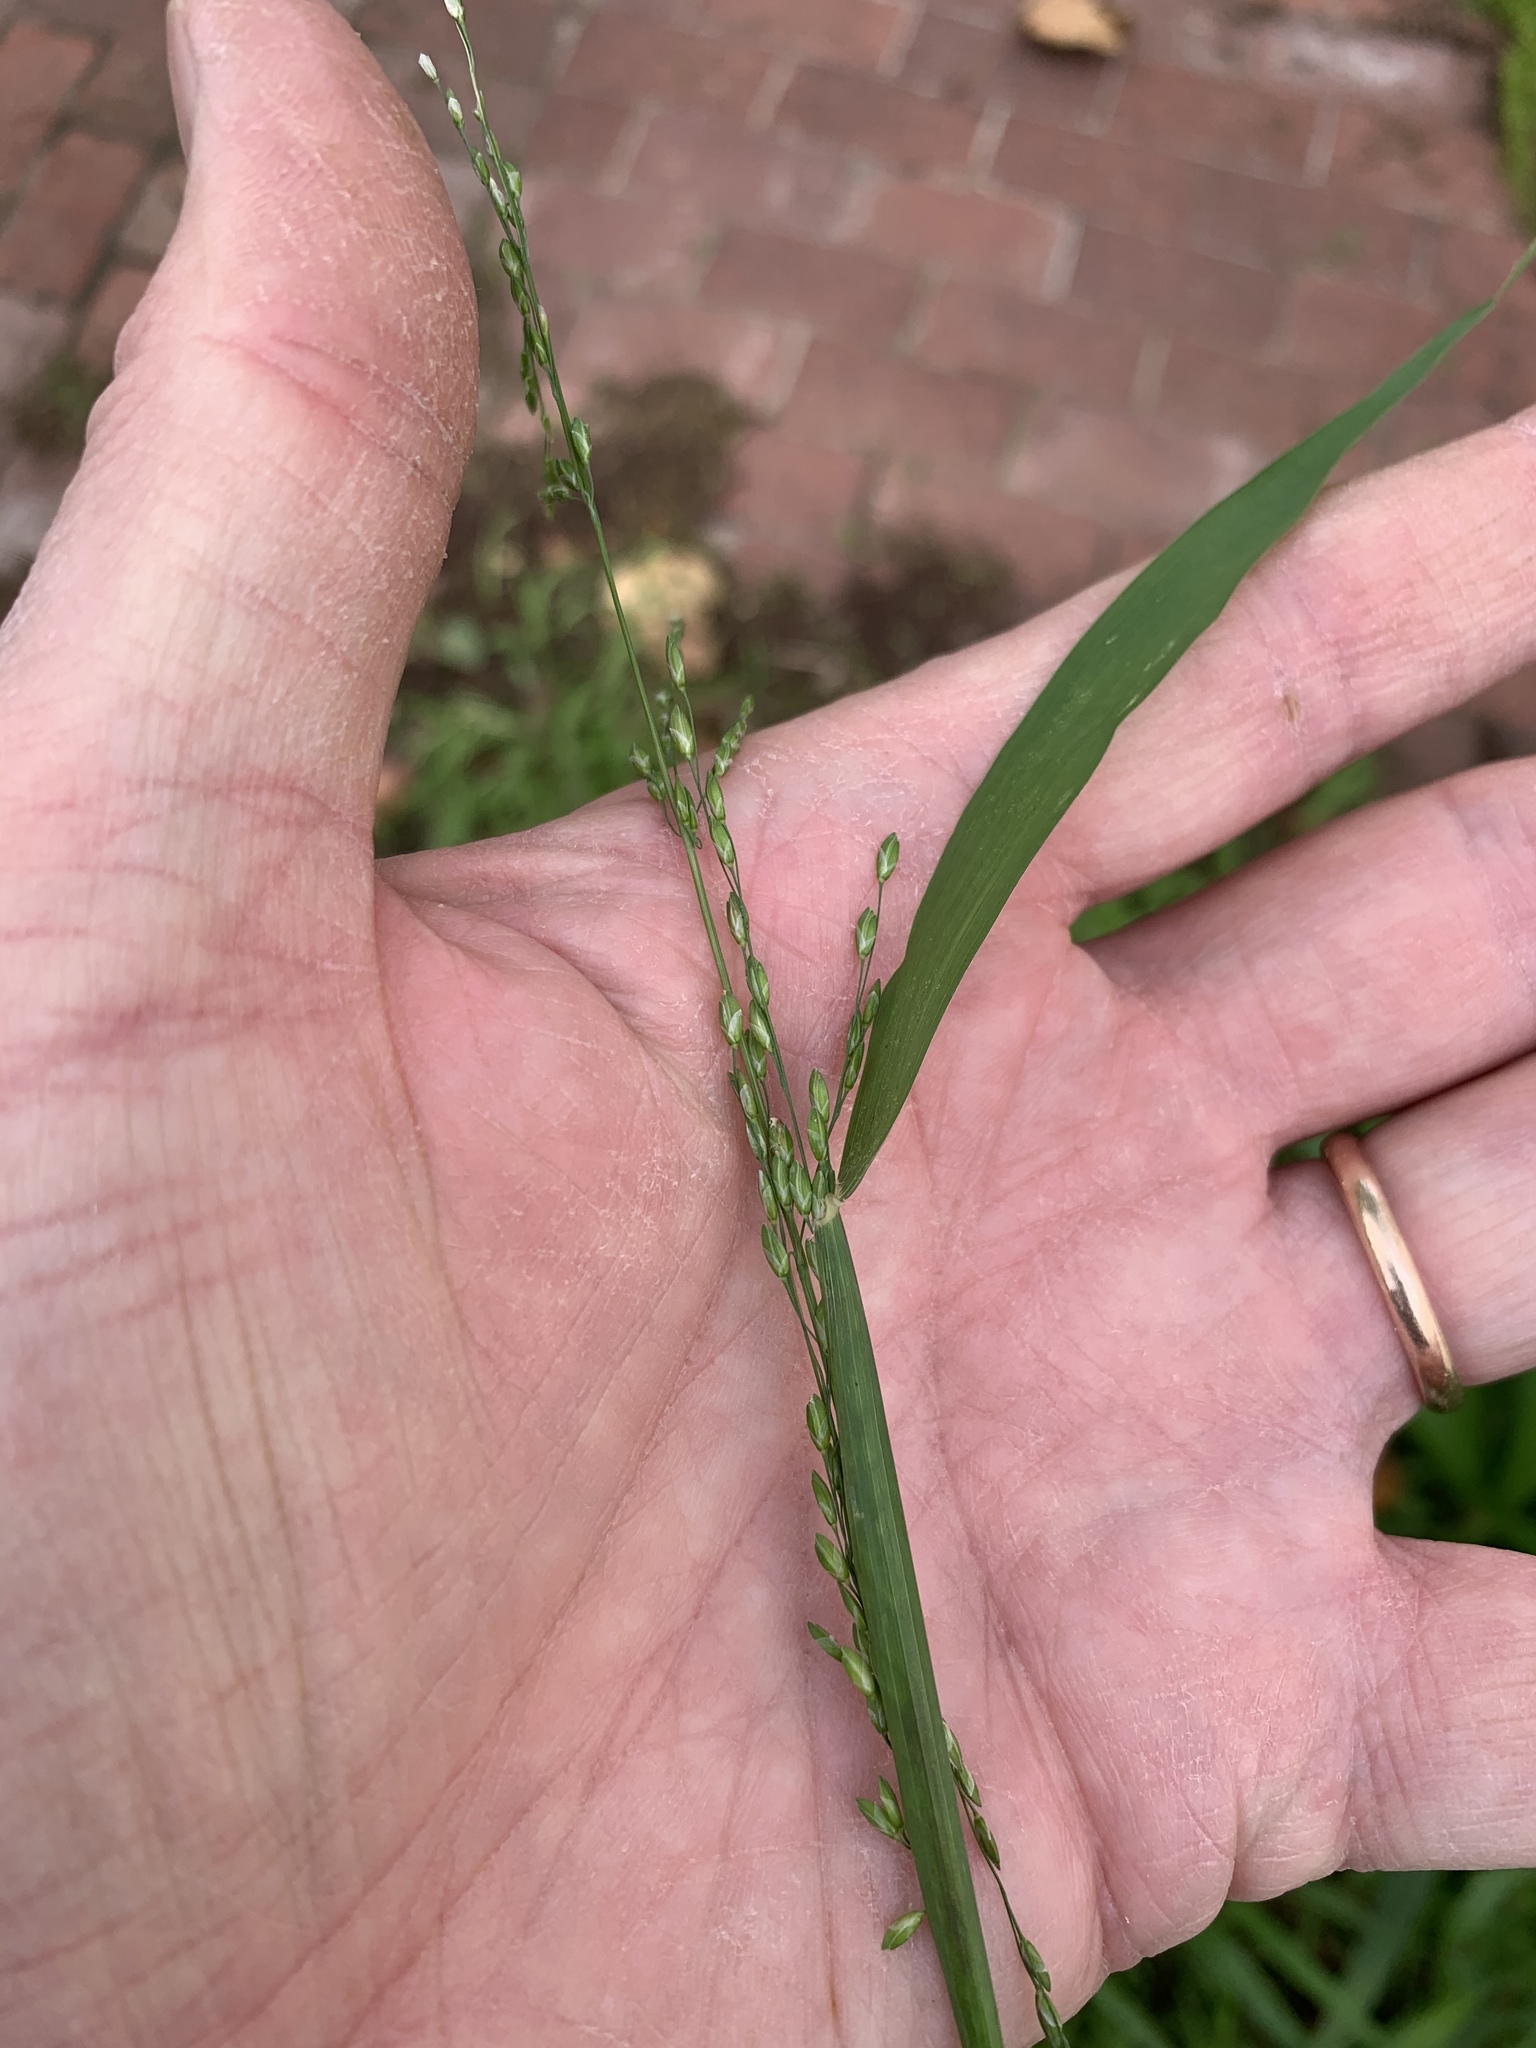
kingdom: Plantae
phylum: Tracheophyta
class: Liliopsida
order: Poales
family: Poaceae
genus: Ehrharta
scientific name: Ehrharta erecta
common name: Panic veldtgrass
